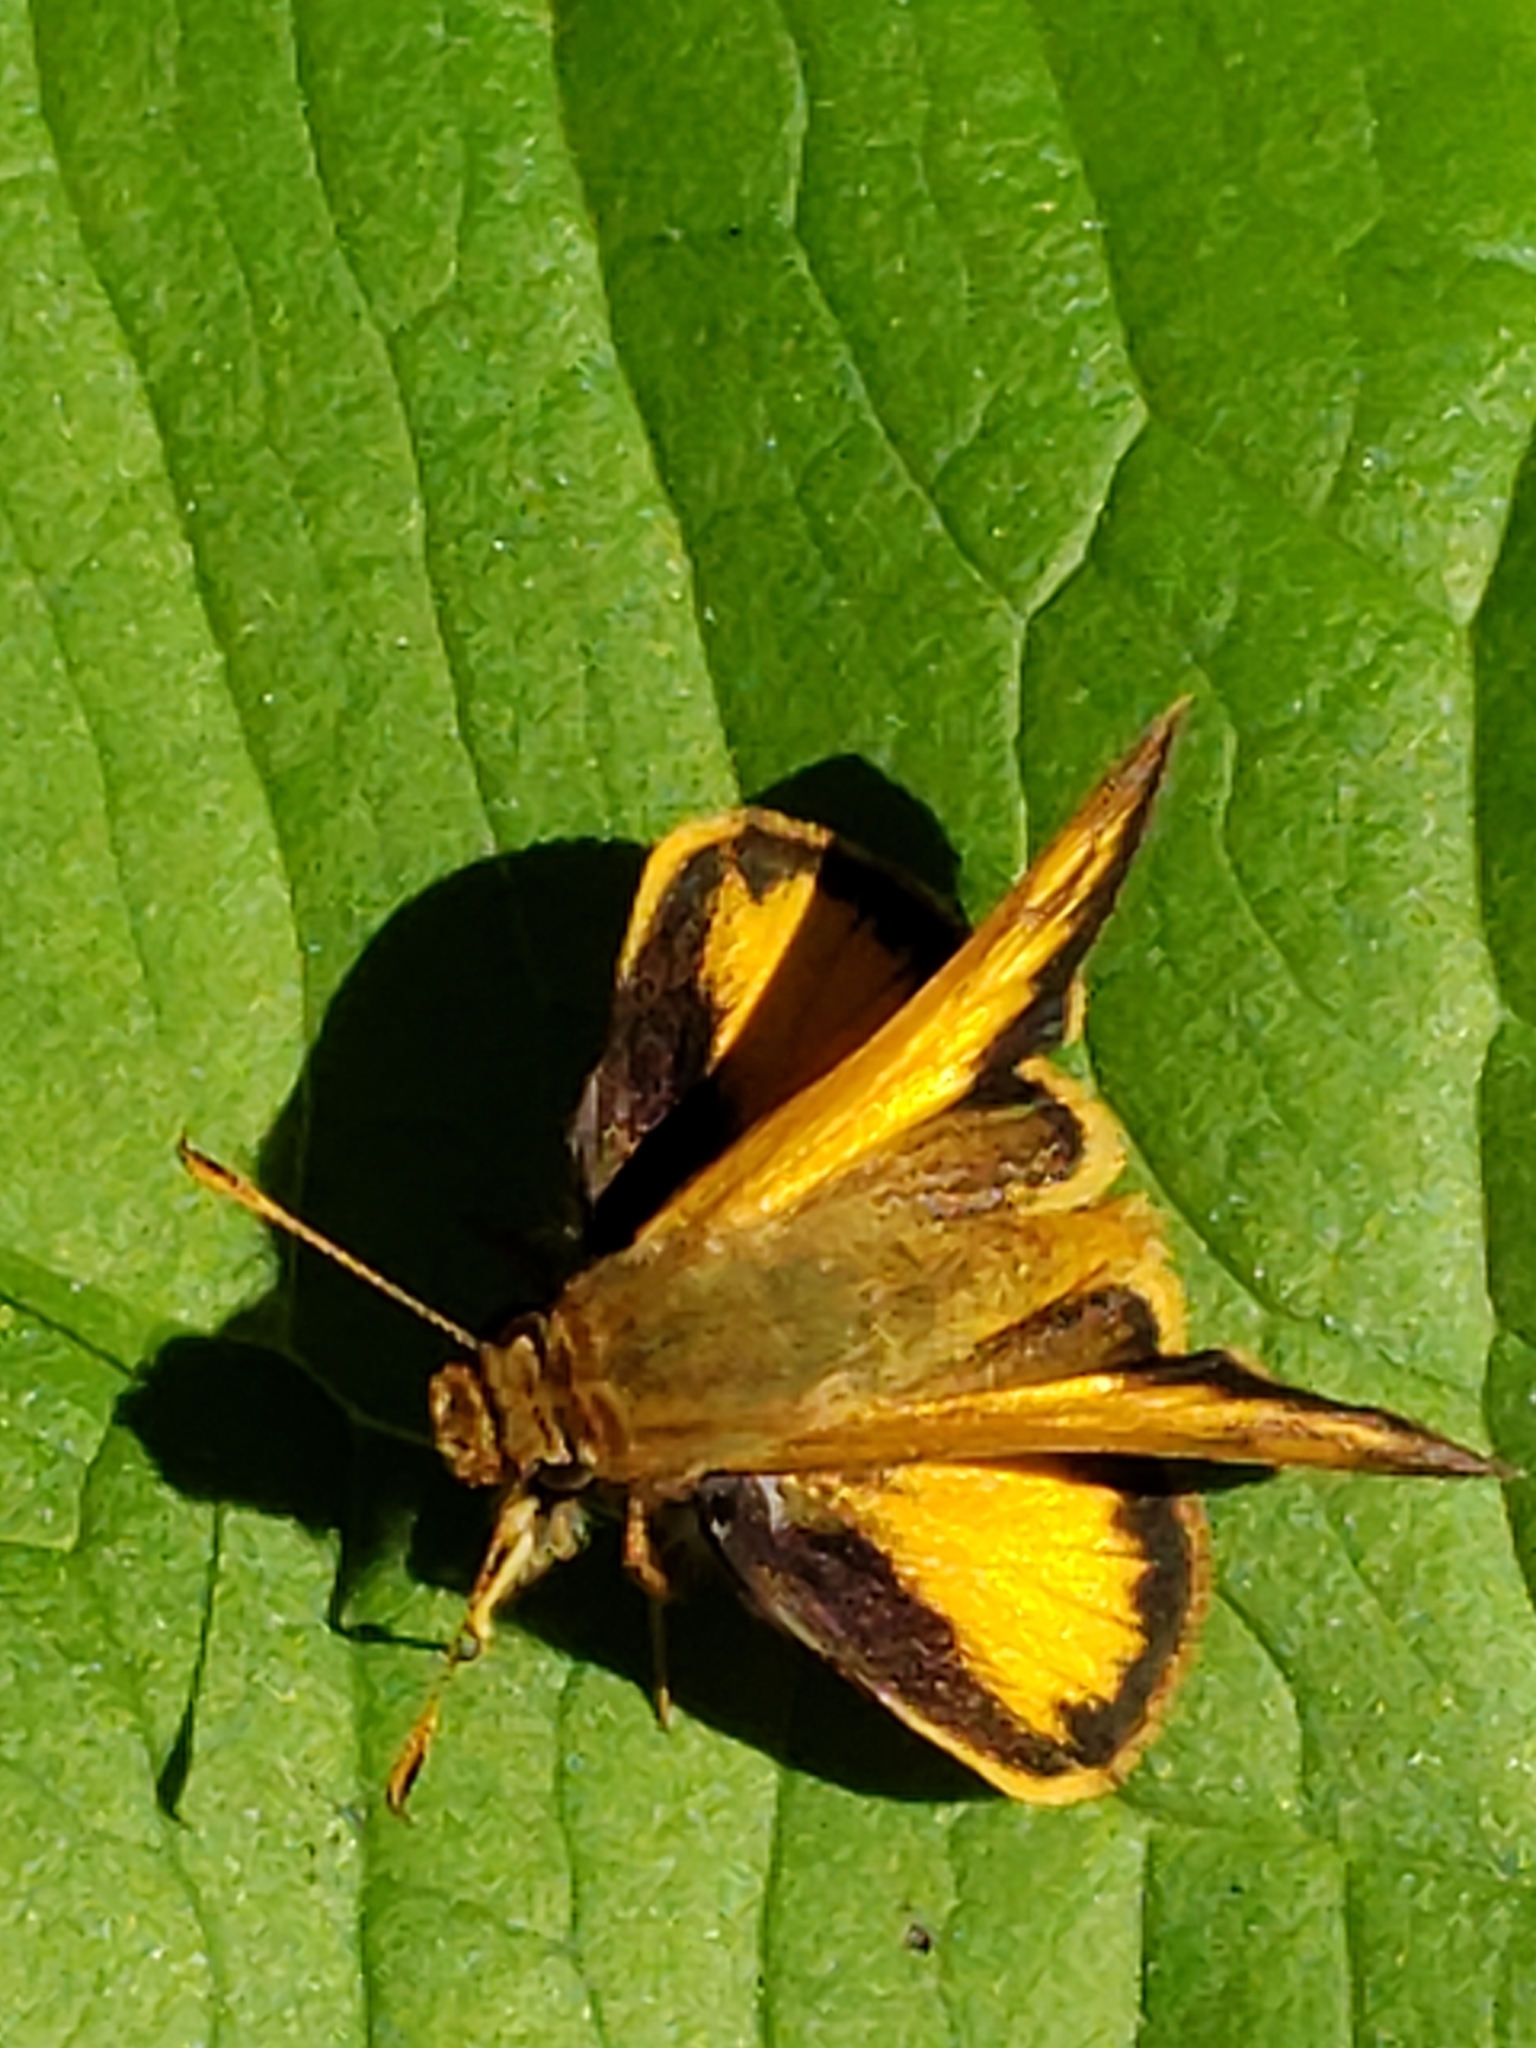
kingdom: Animalia
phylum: Arthropoda
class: Insecta
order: Lepidoptera
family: Hesperiidae
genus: Lon
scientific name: Lon zabulon
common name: Zabulon skipper
